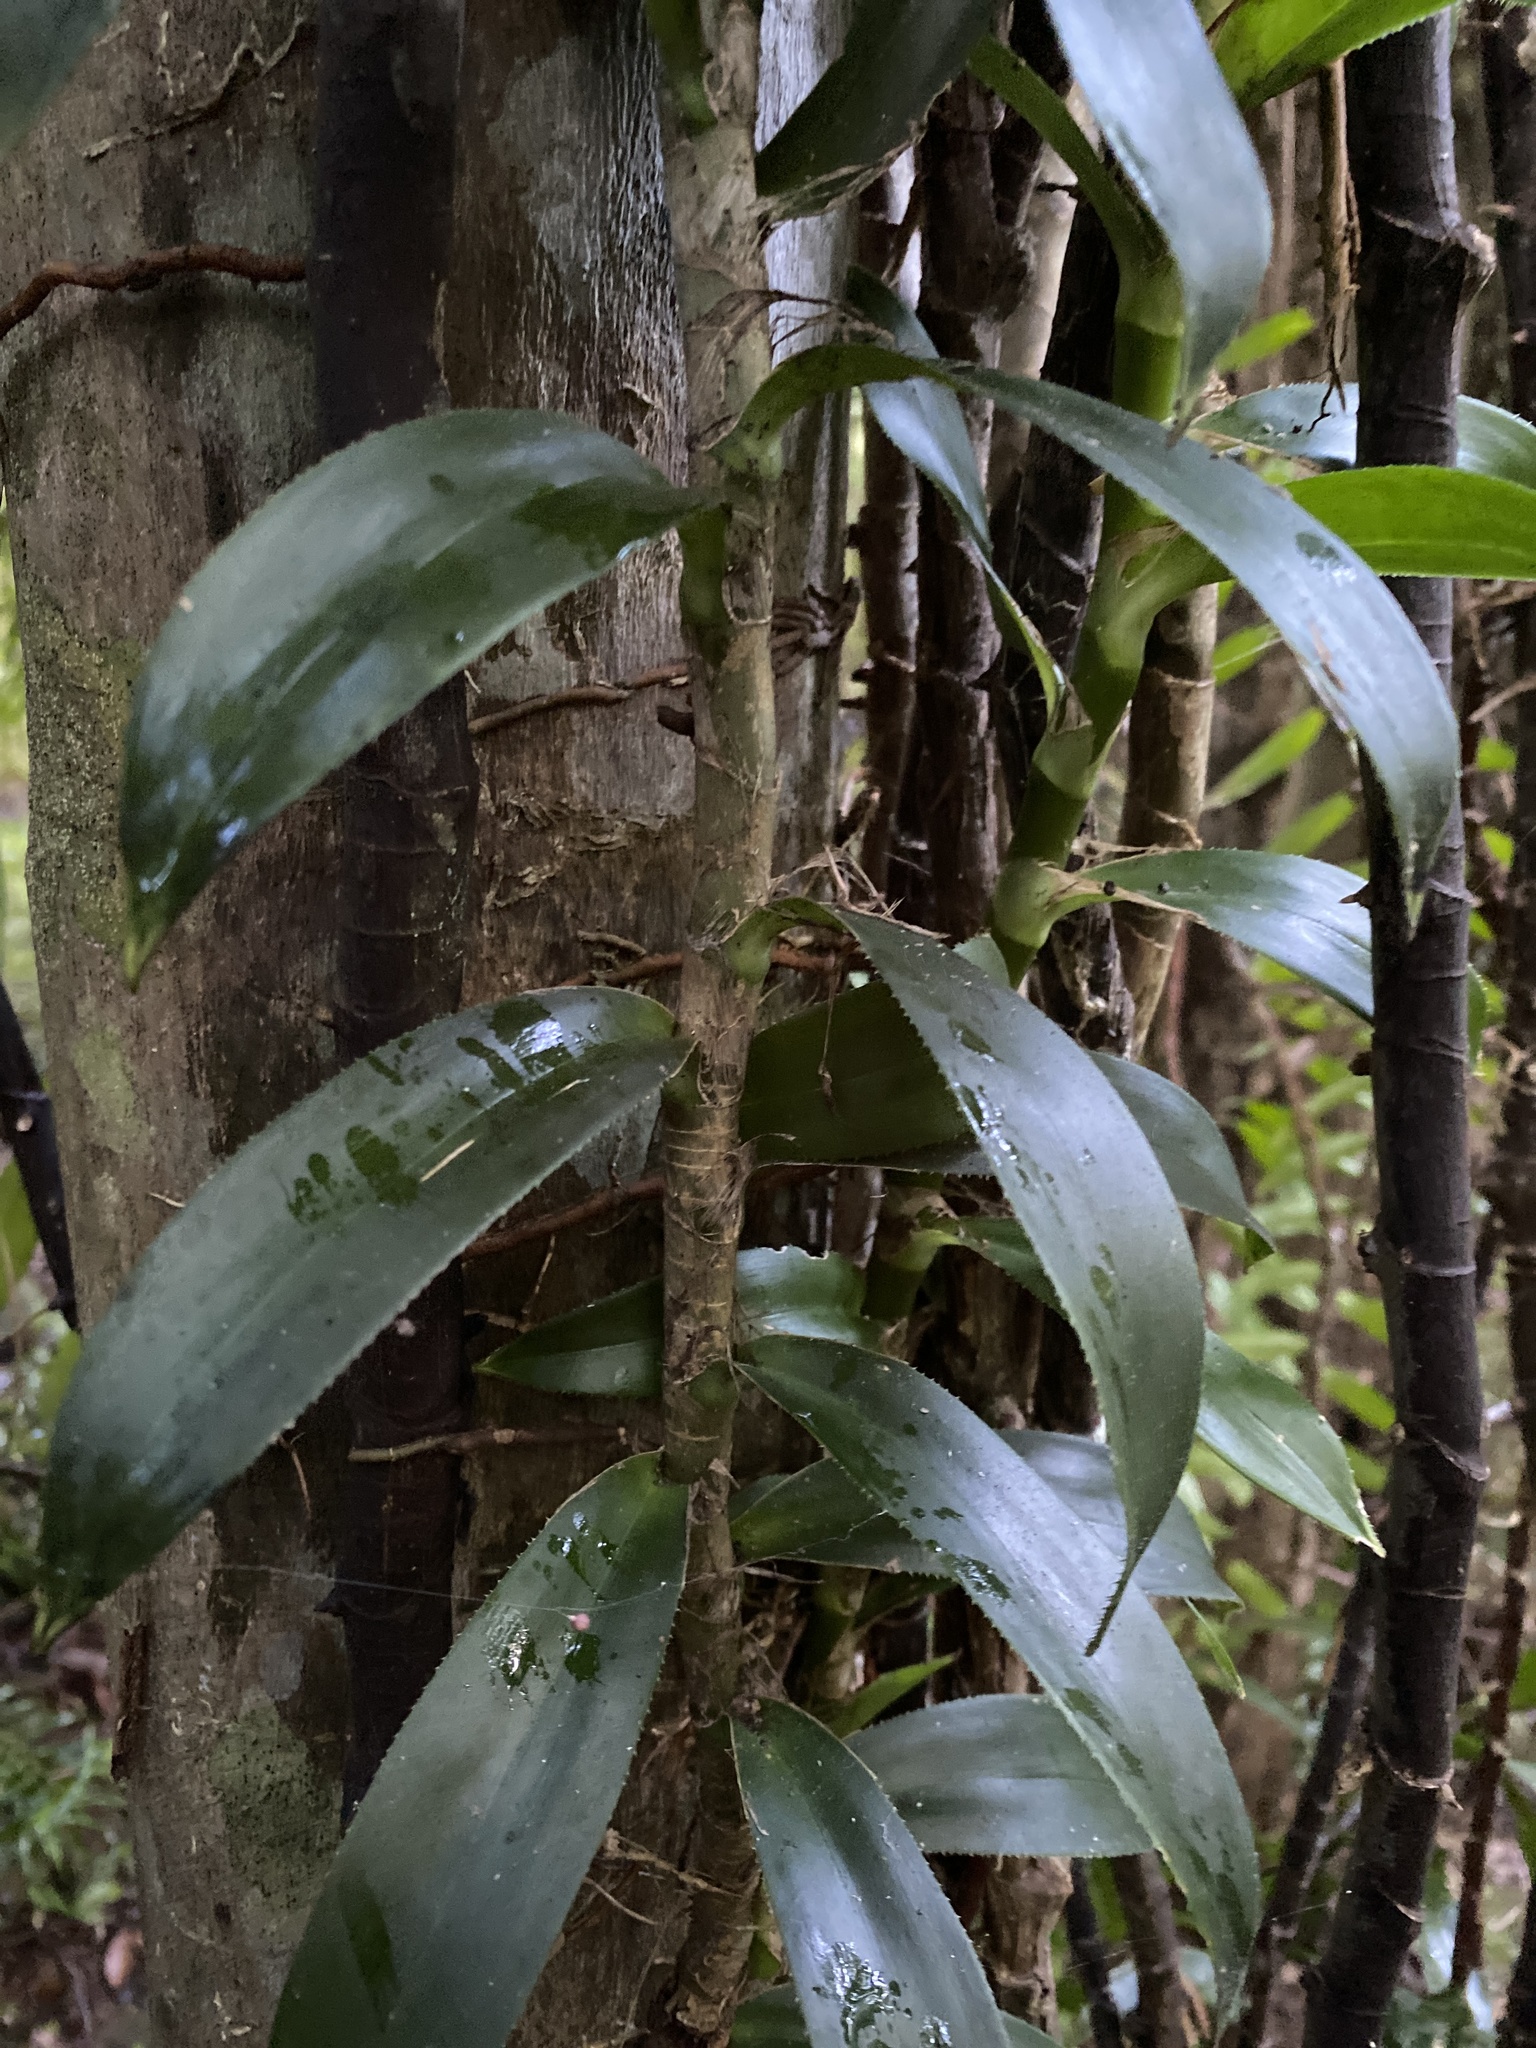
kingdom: Plantae
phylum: Tracheophyta
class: Liliopsida
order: Pandanales
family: Pandanaceae
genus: Freycinetia
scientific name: Freycinetia scandens
